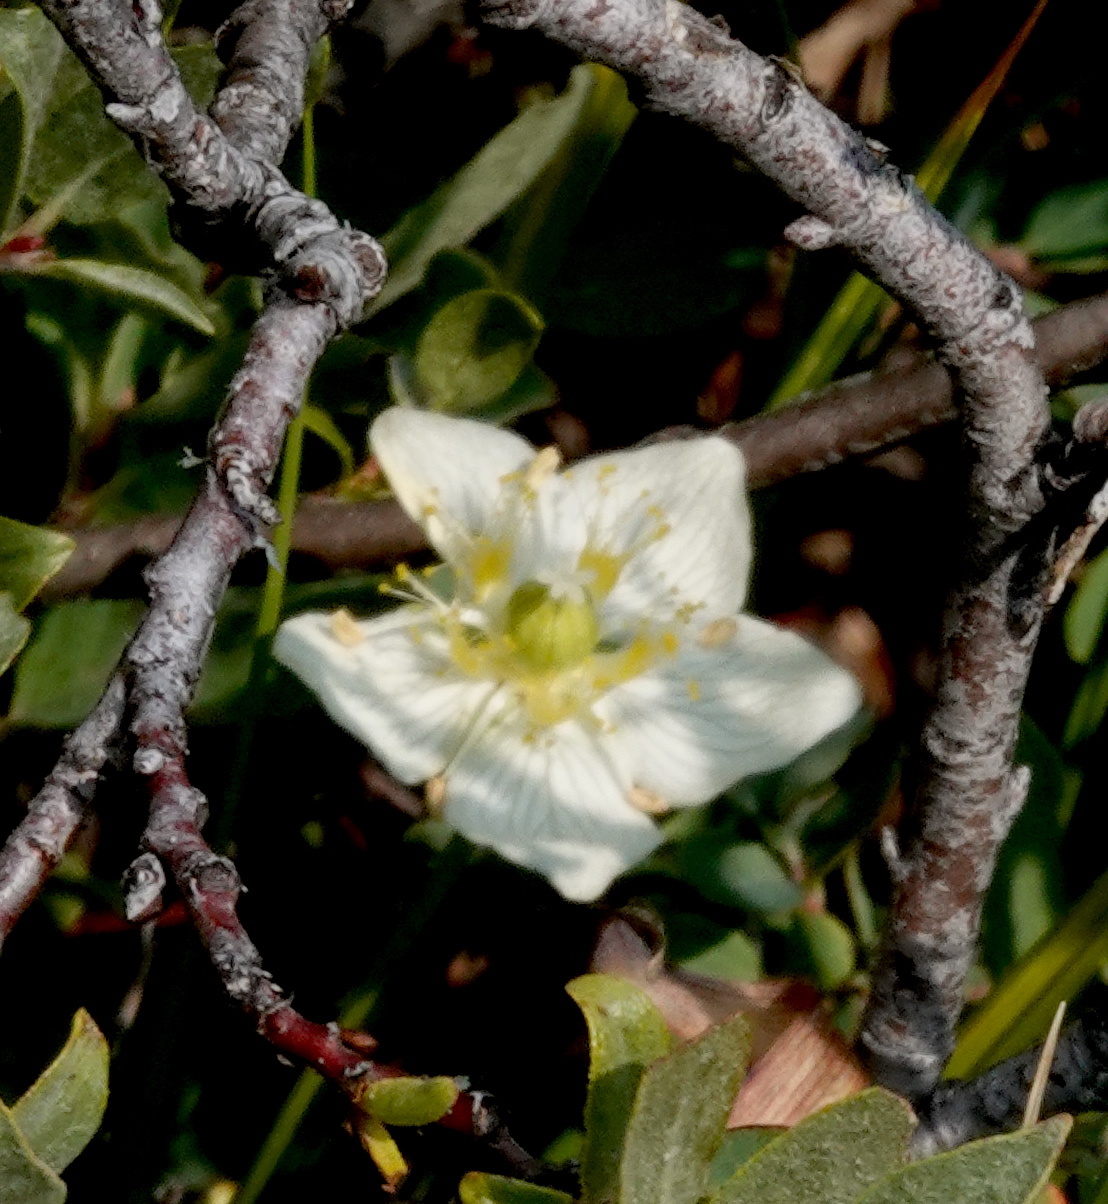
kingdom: Plantae
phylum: Tracheophyta
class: Magnoliopsida
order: Celastrales
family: Parnassiaceae
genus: Parnassia
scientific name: Parnassia palustris
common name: Grass-of-parnassus
